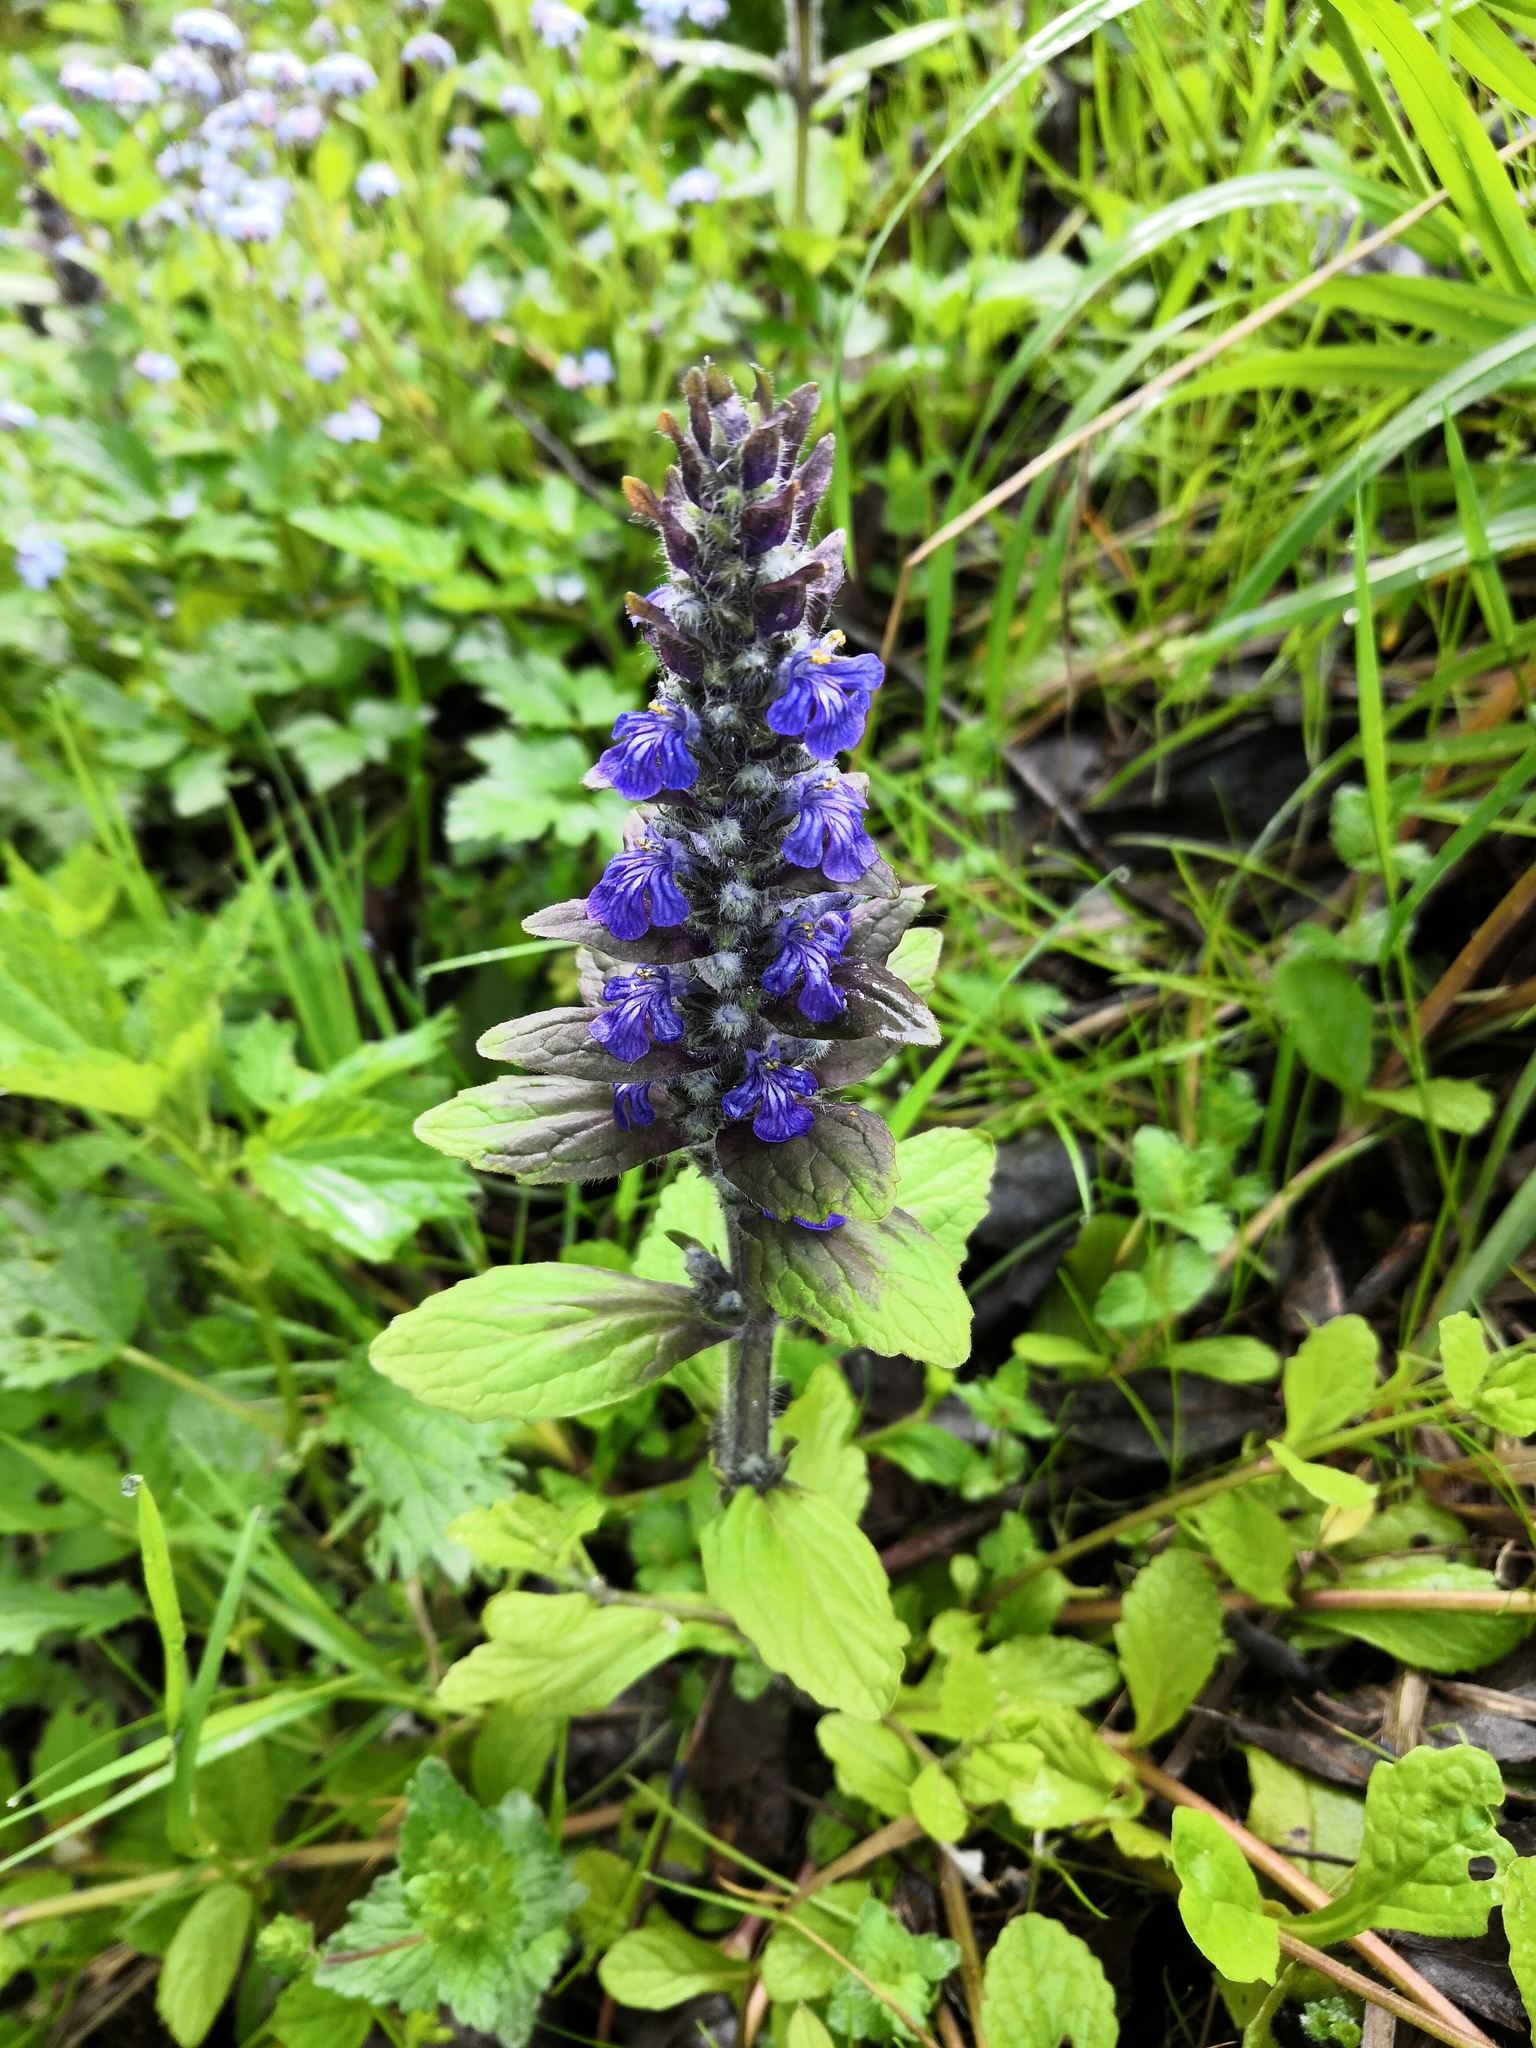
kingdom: Plantae
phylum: Tracheophyta
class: Magnoliopsida
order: Lamiales
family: Lamiaceae
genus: Ajuga
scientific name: Ajuga reptans
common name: Bugle
